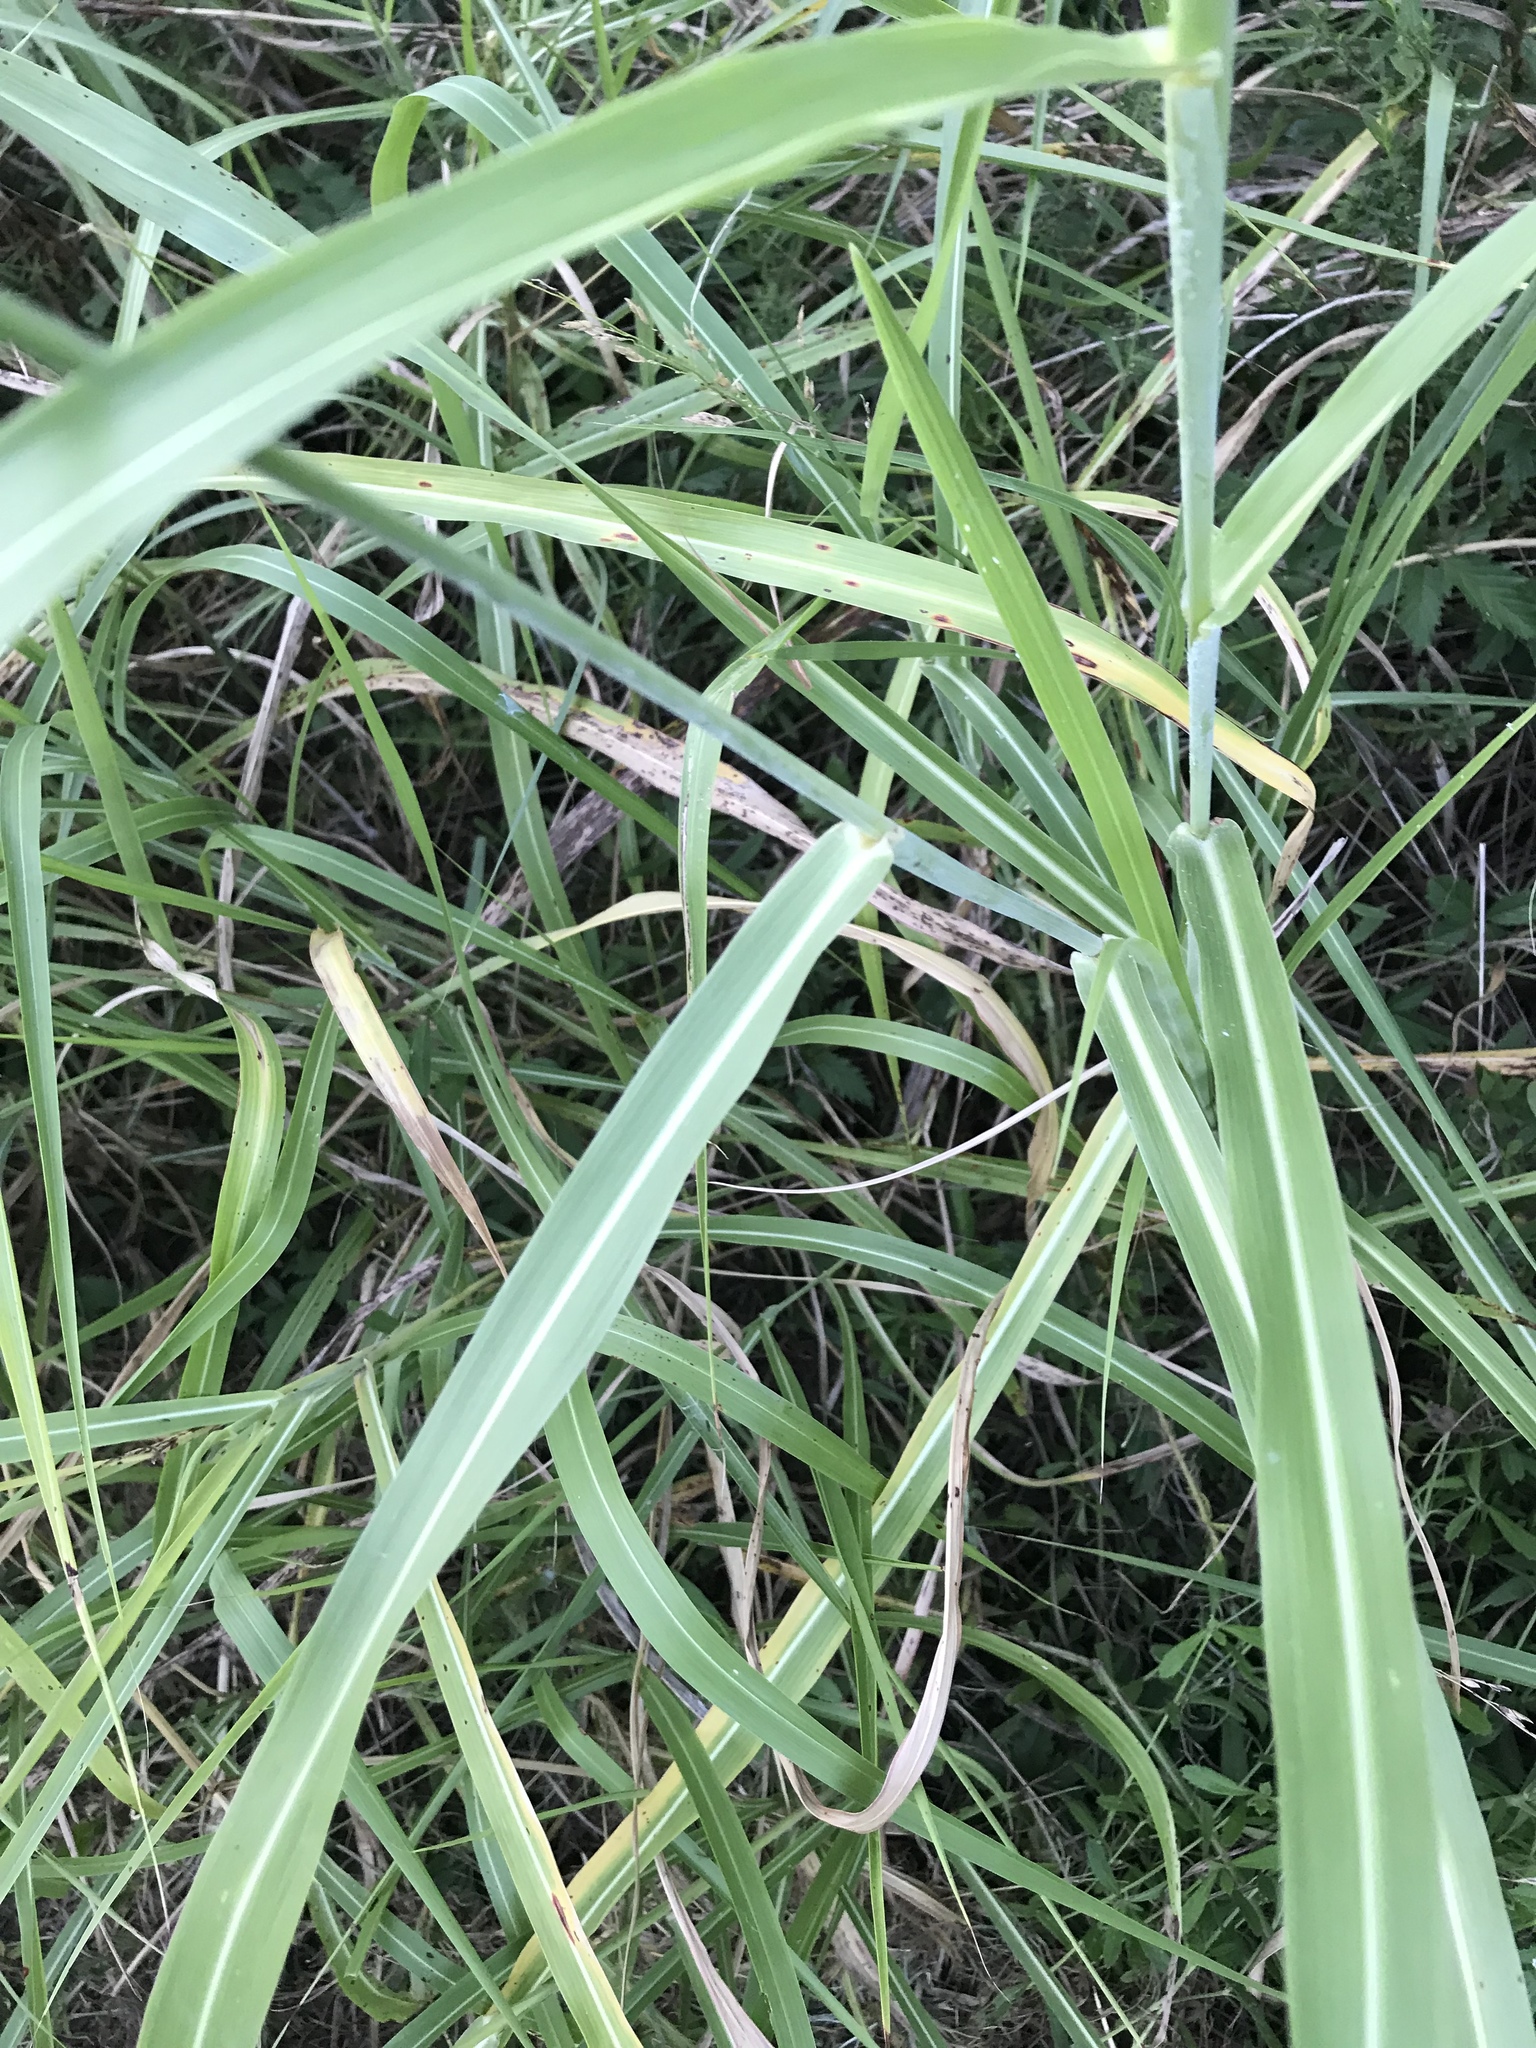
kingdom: Plantae
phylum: Tracheophyta
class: Liliopsida
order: Poales
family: Poaceae
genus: Sorghum
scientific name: Sorghum halepense
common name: Johnson-grass
